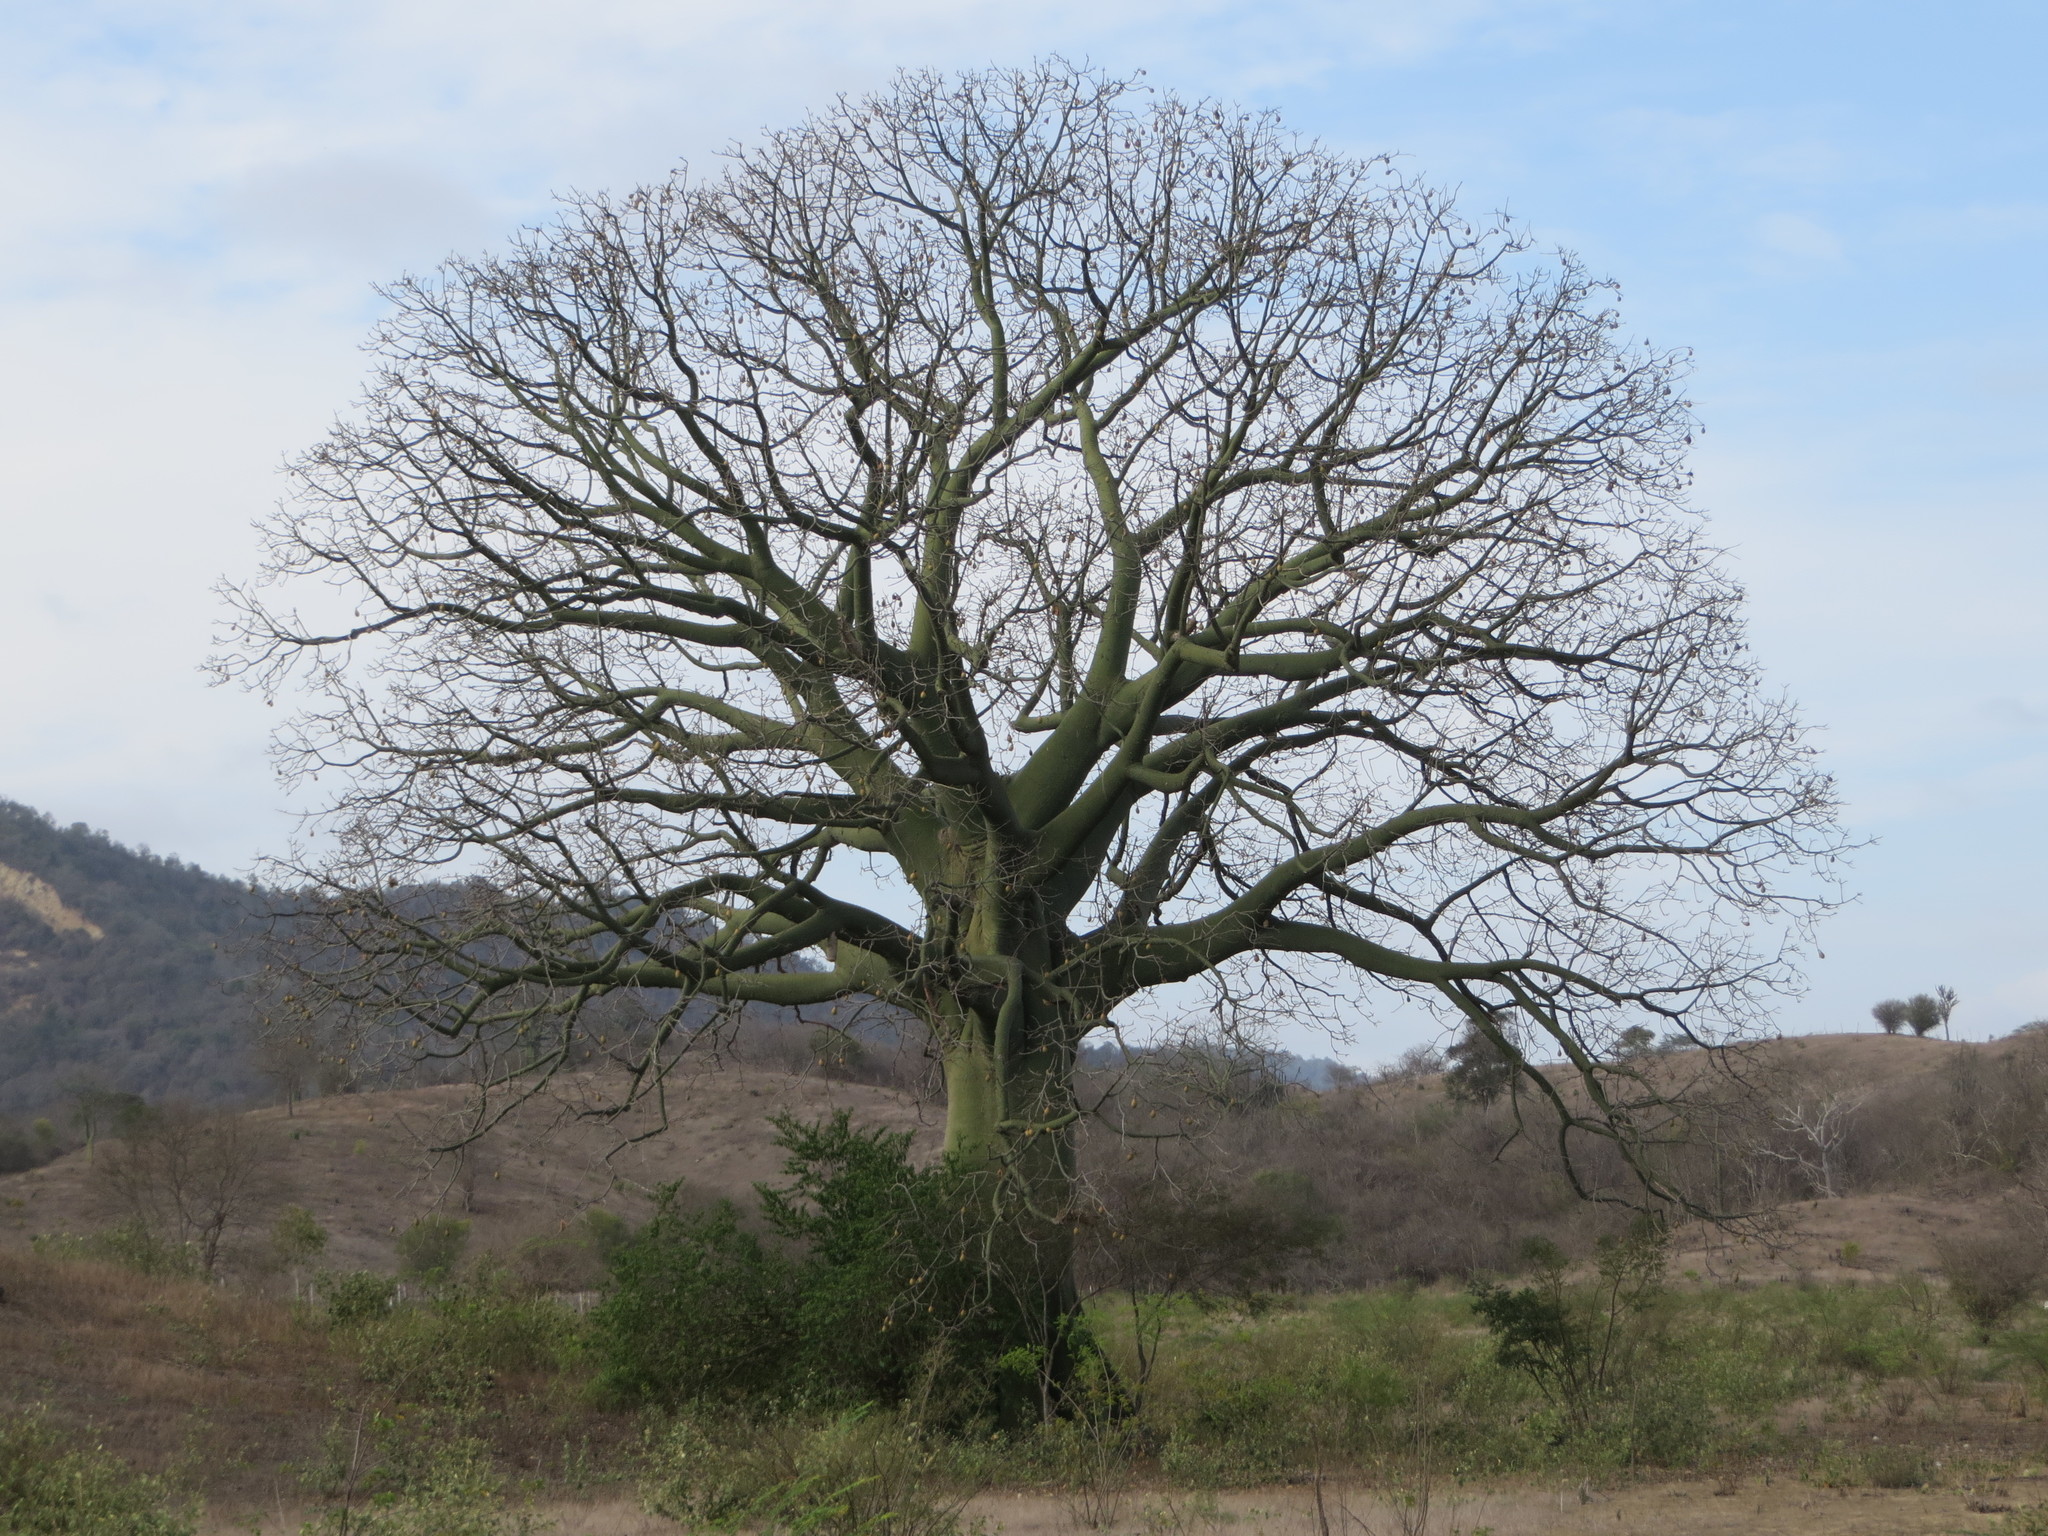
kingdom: Plantae
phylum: Tracheophyta
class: Magnoliopsida
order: Malvales
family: Malvaceae
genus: Ceiba
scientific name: Ceiba trischistandra
